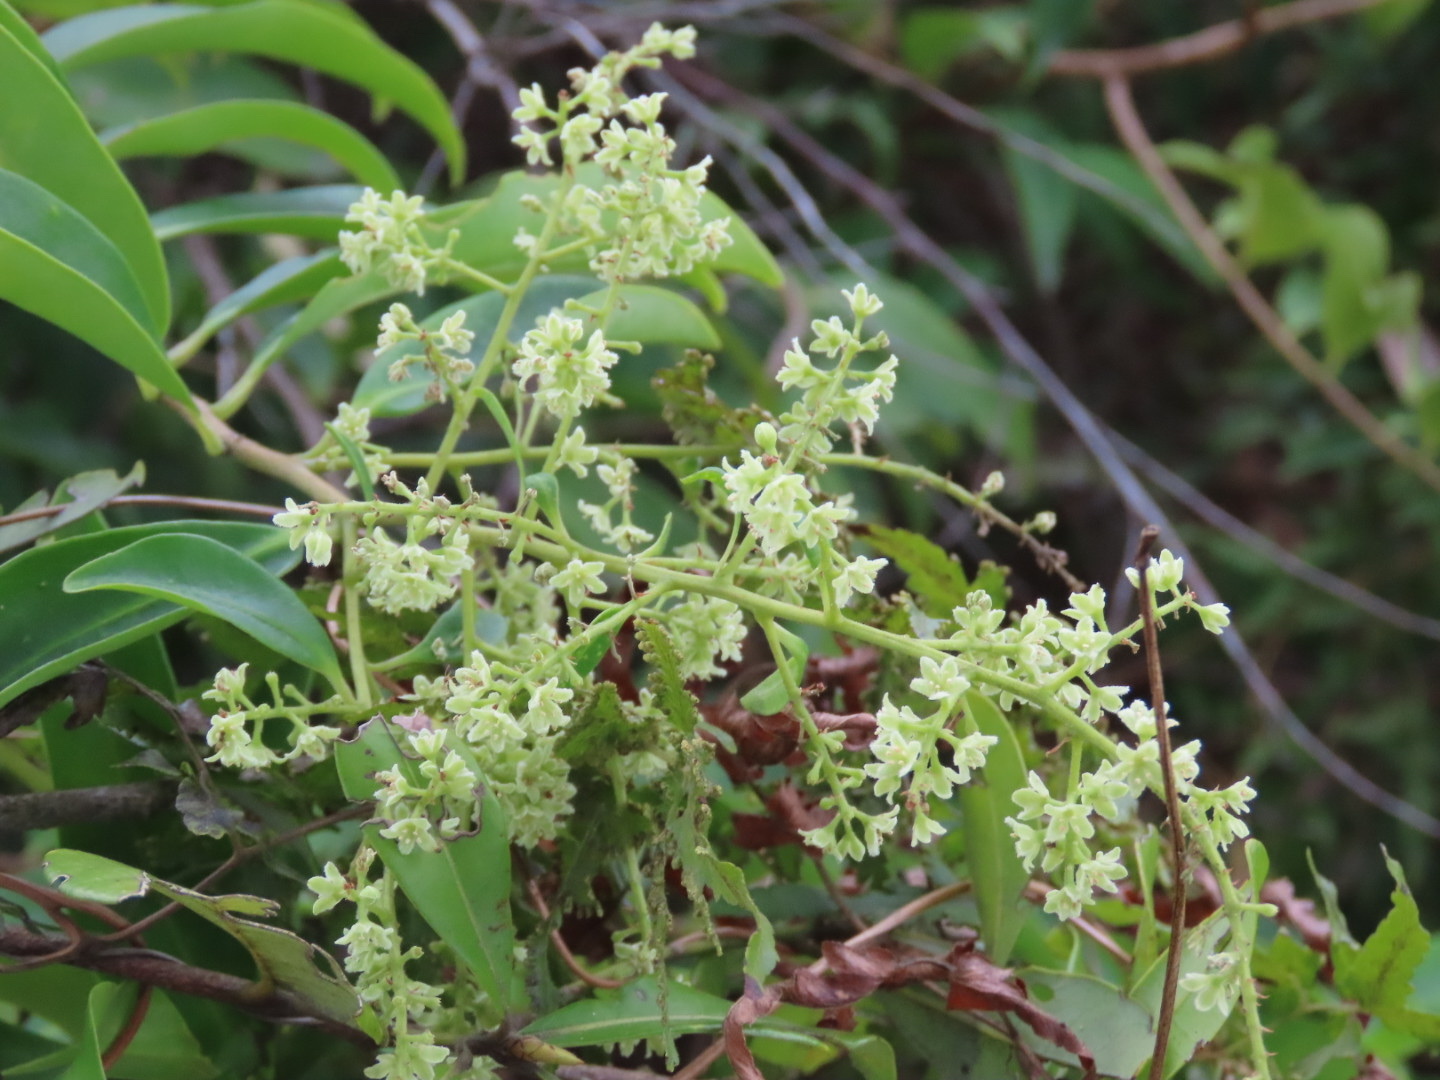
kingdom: Plantae
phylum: Tracheophyta
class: Magnoliopsida
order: Ericales
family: Primulaceae
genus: Embelia
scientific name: Embelia ribes
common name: Vidanga
